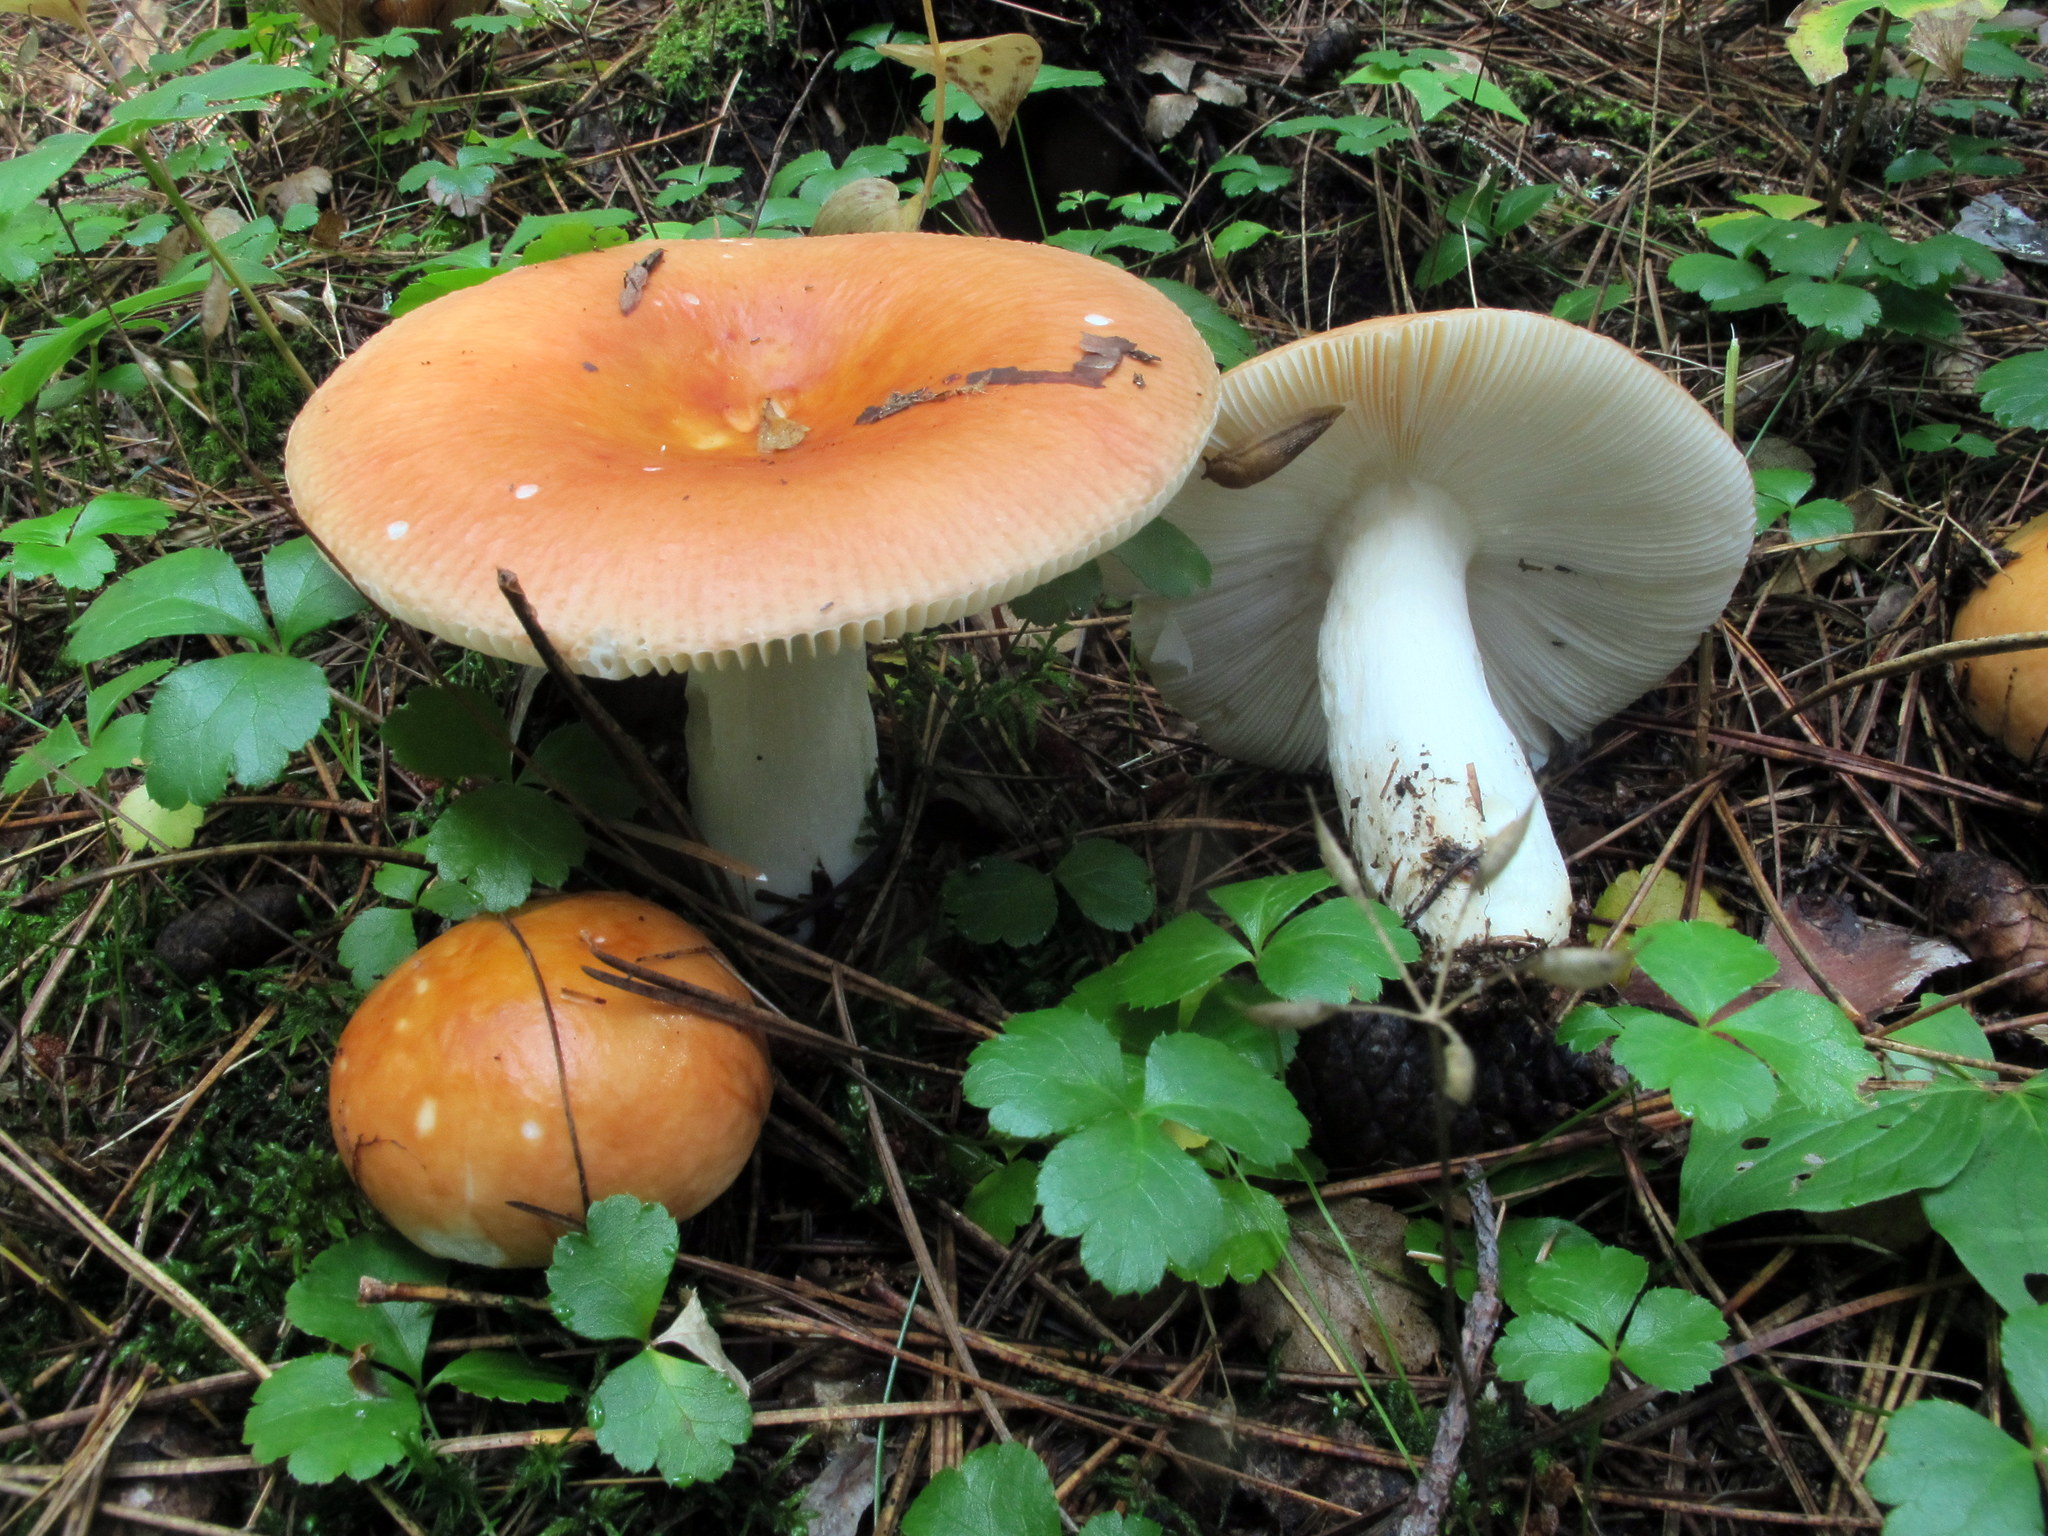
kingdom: Fungi
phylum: Basidiomycota
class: Agaricomycetes
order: Russulales
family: Russulaceae
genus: Russula
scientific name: Russula paludosa
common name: Hintapink
